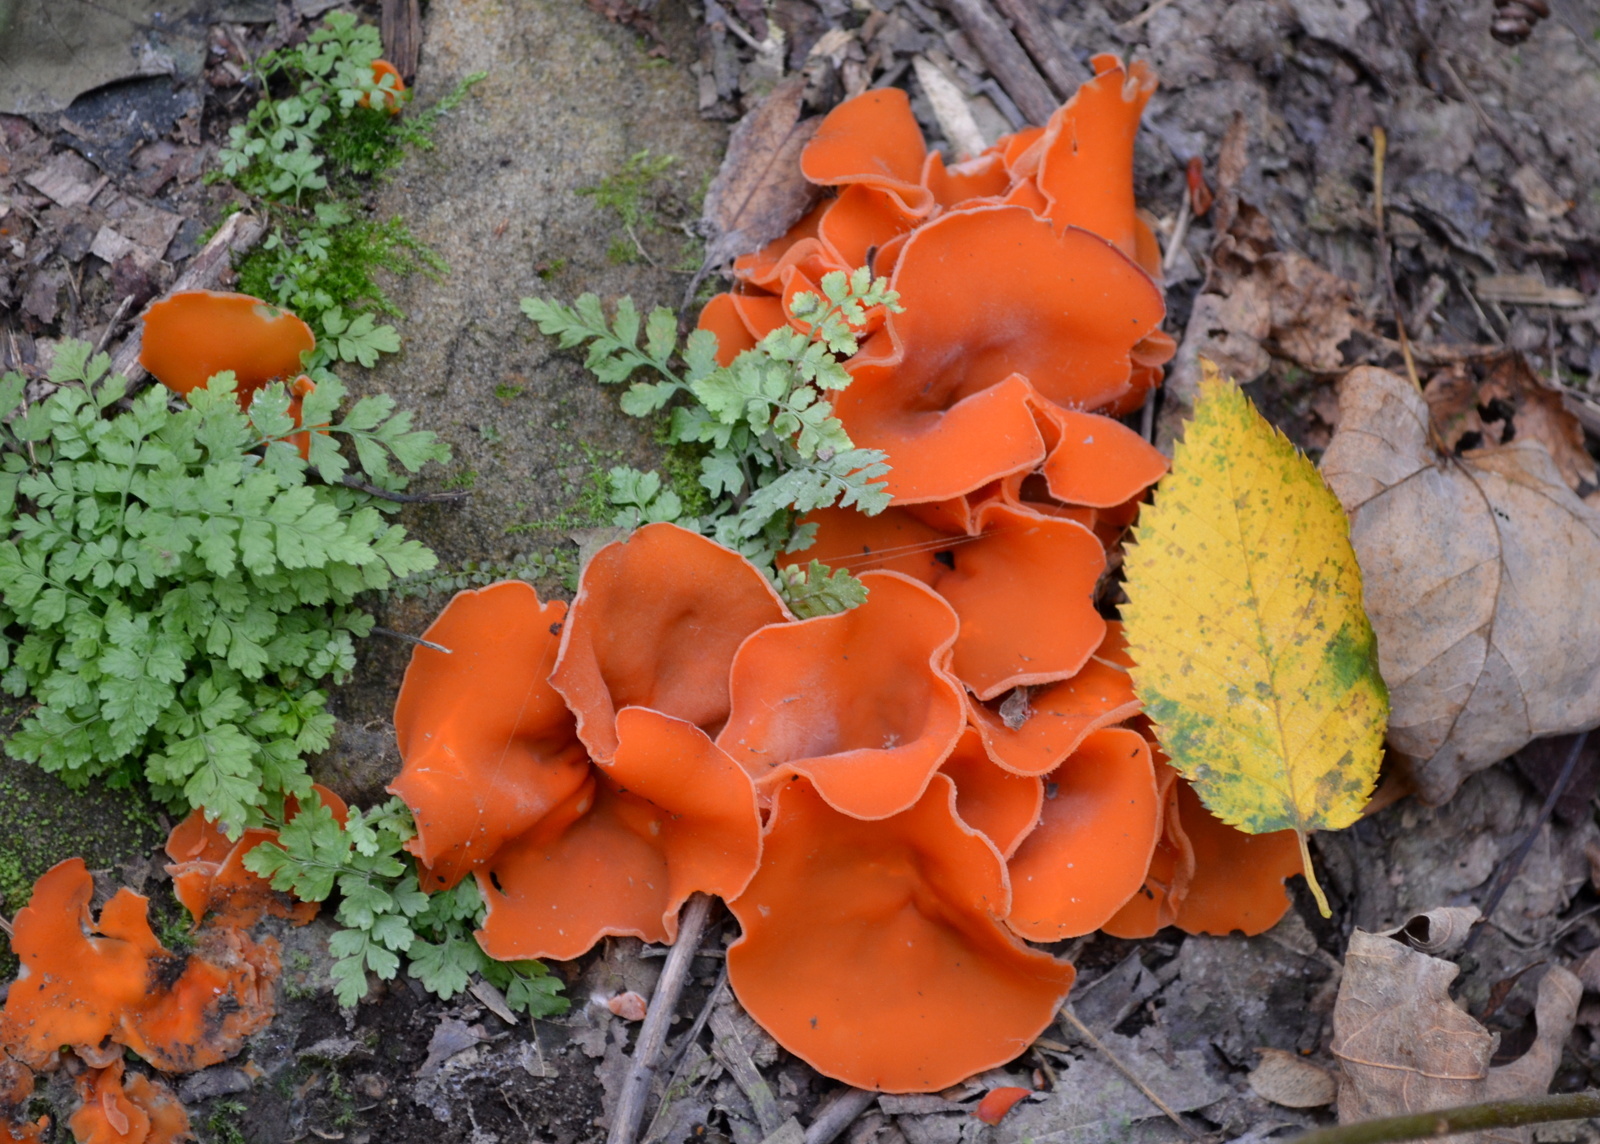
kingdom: Fungi
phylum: Ascomycota
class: Pezizomycetes
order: Pezizales
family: Pyronemataceae
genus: Aleuria
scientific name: Aleuria aurantia
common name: Orange peel fungus
